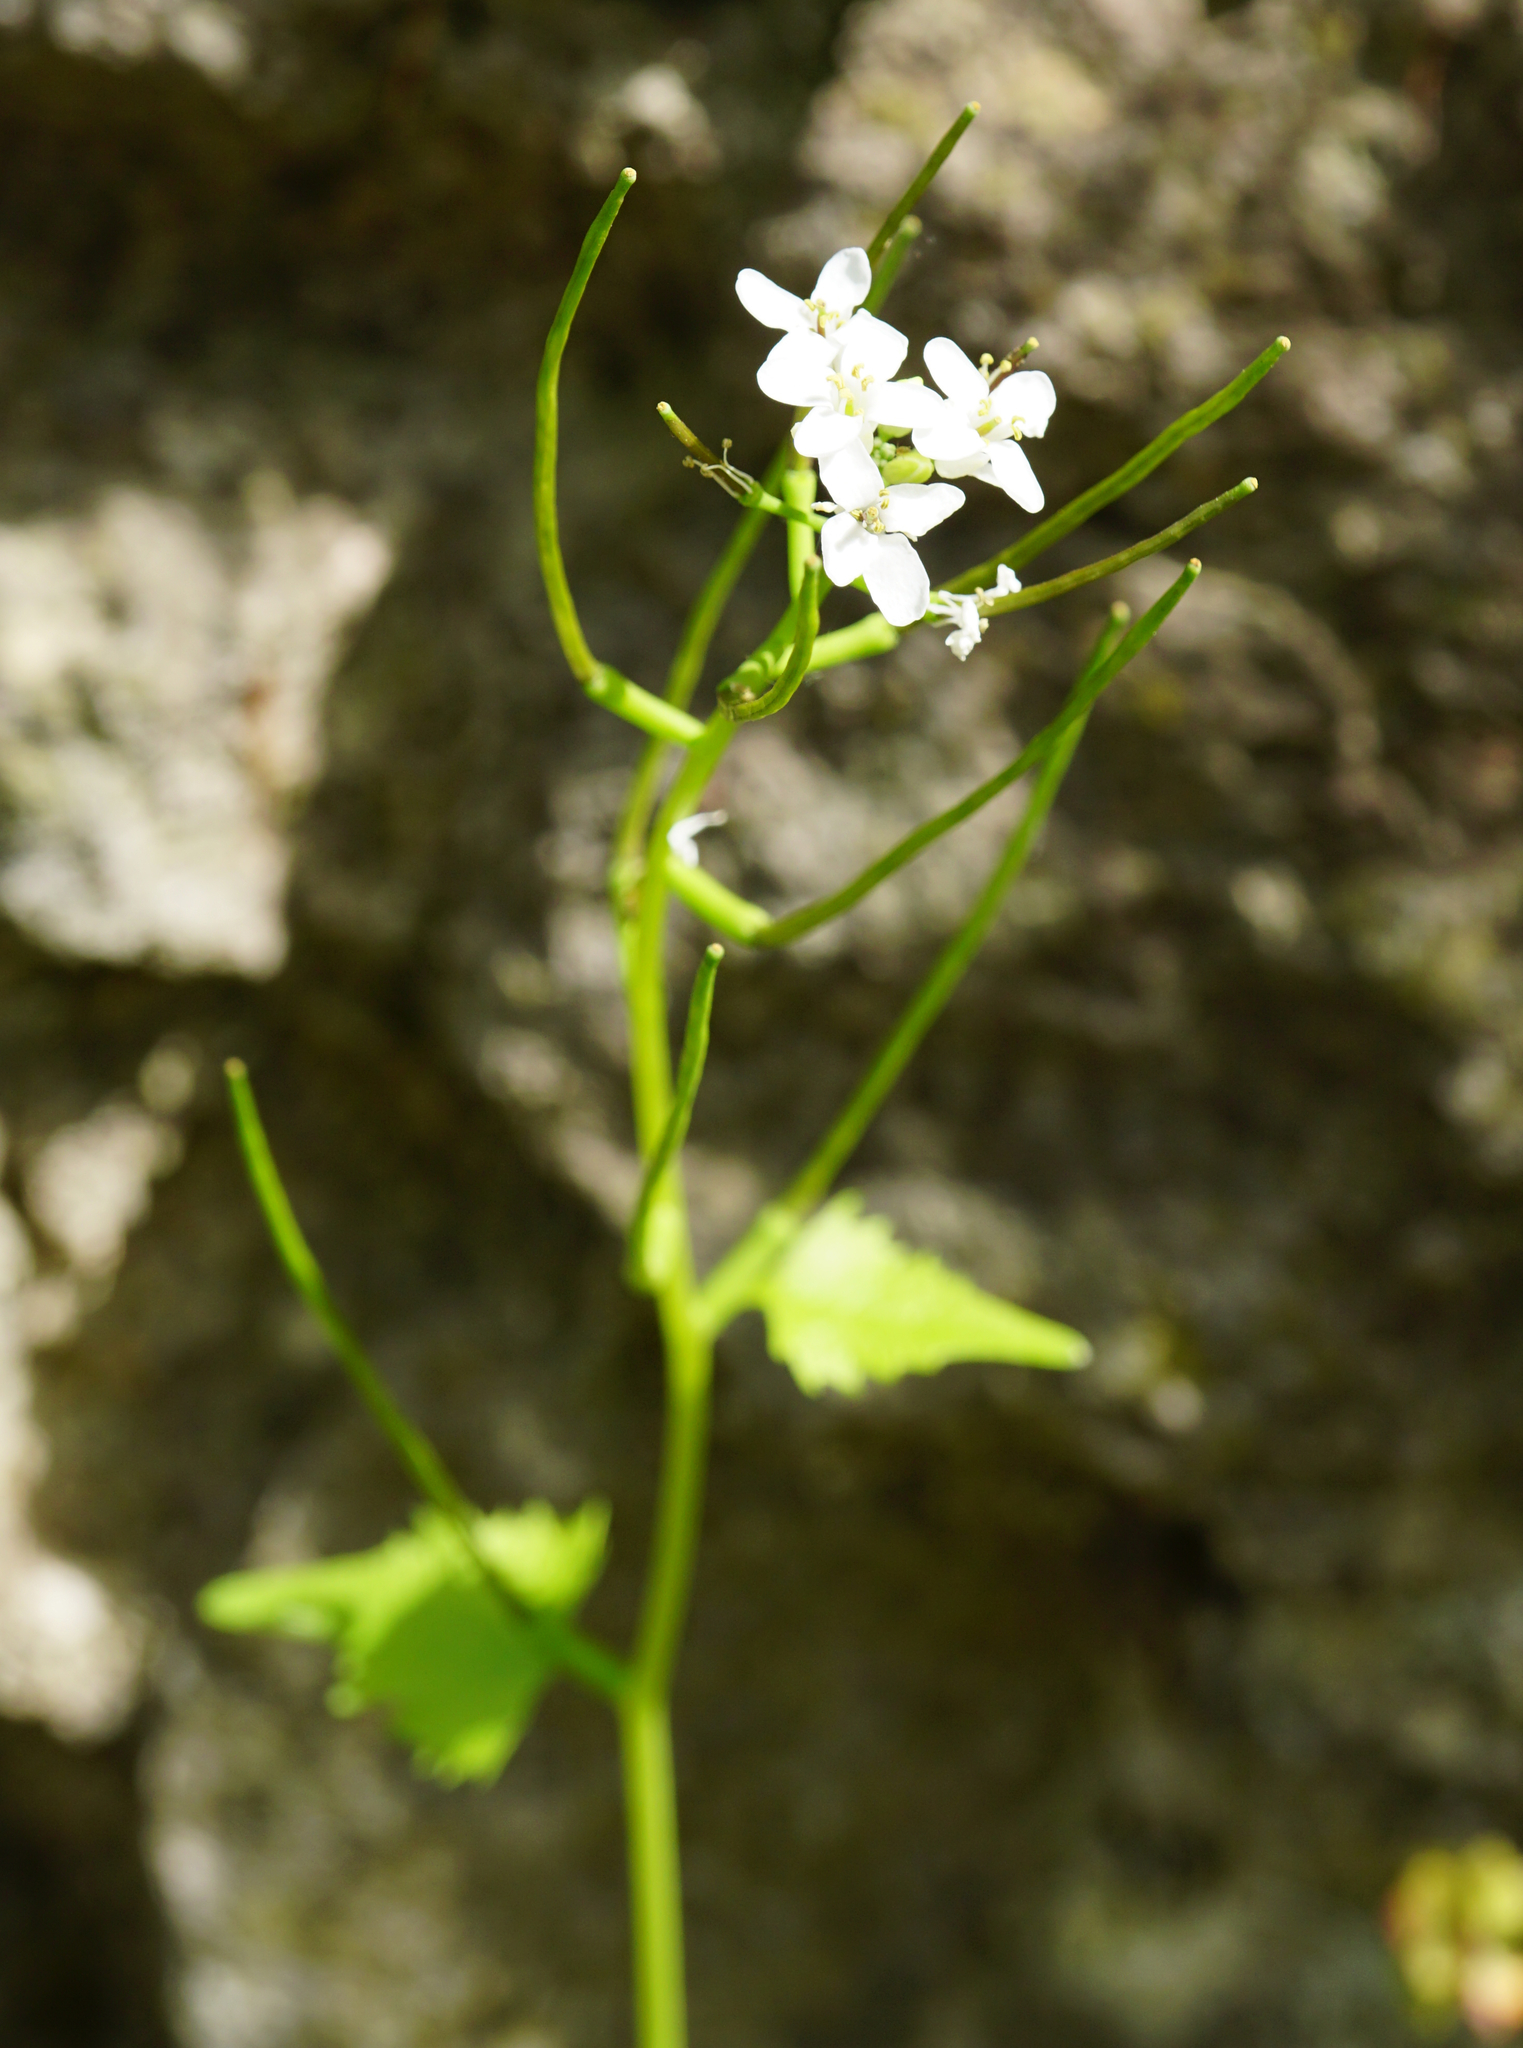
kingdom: Plantae
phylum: Tracheophyta
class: Magnoliopsida
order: Brassicales
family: Brassicaceae
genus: Alliaria
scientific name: Alliaria petiolata
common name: Garlic mustard
